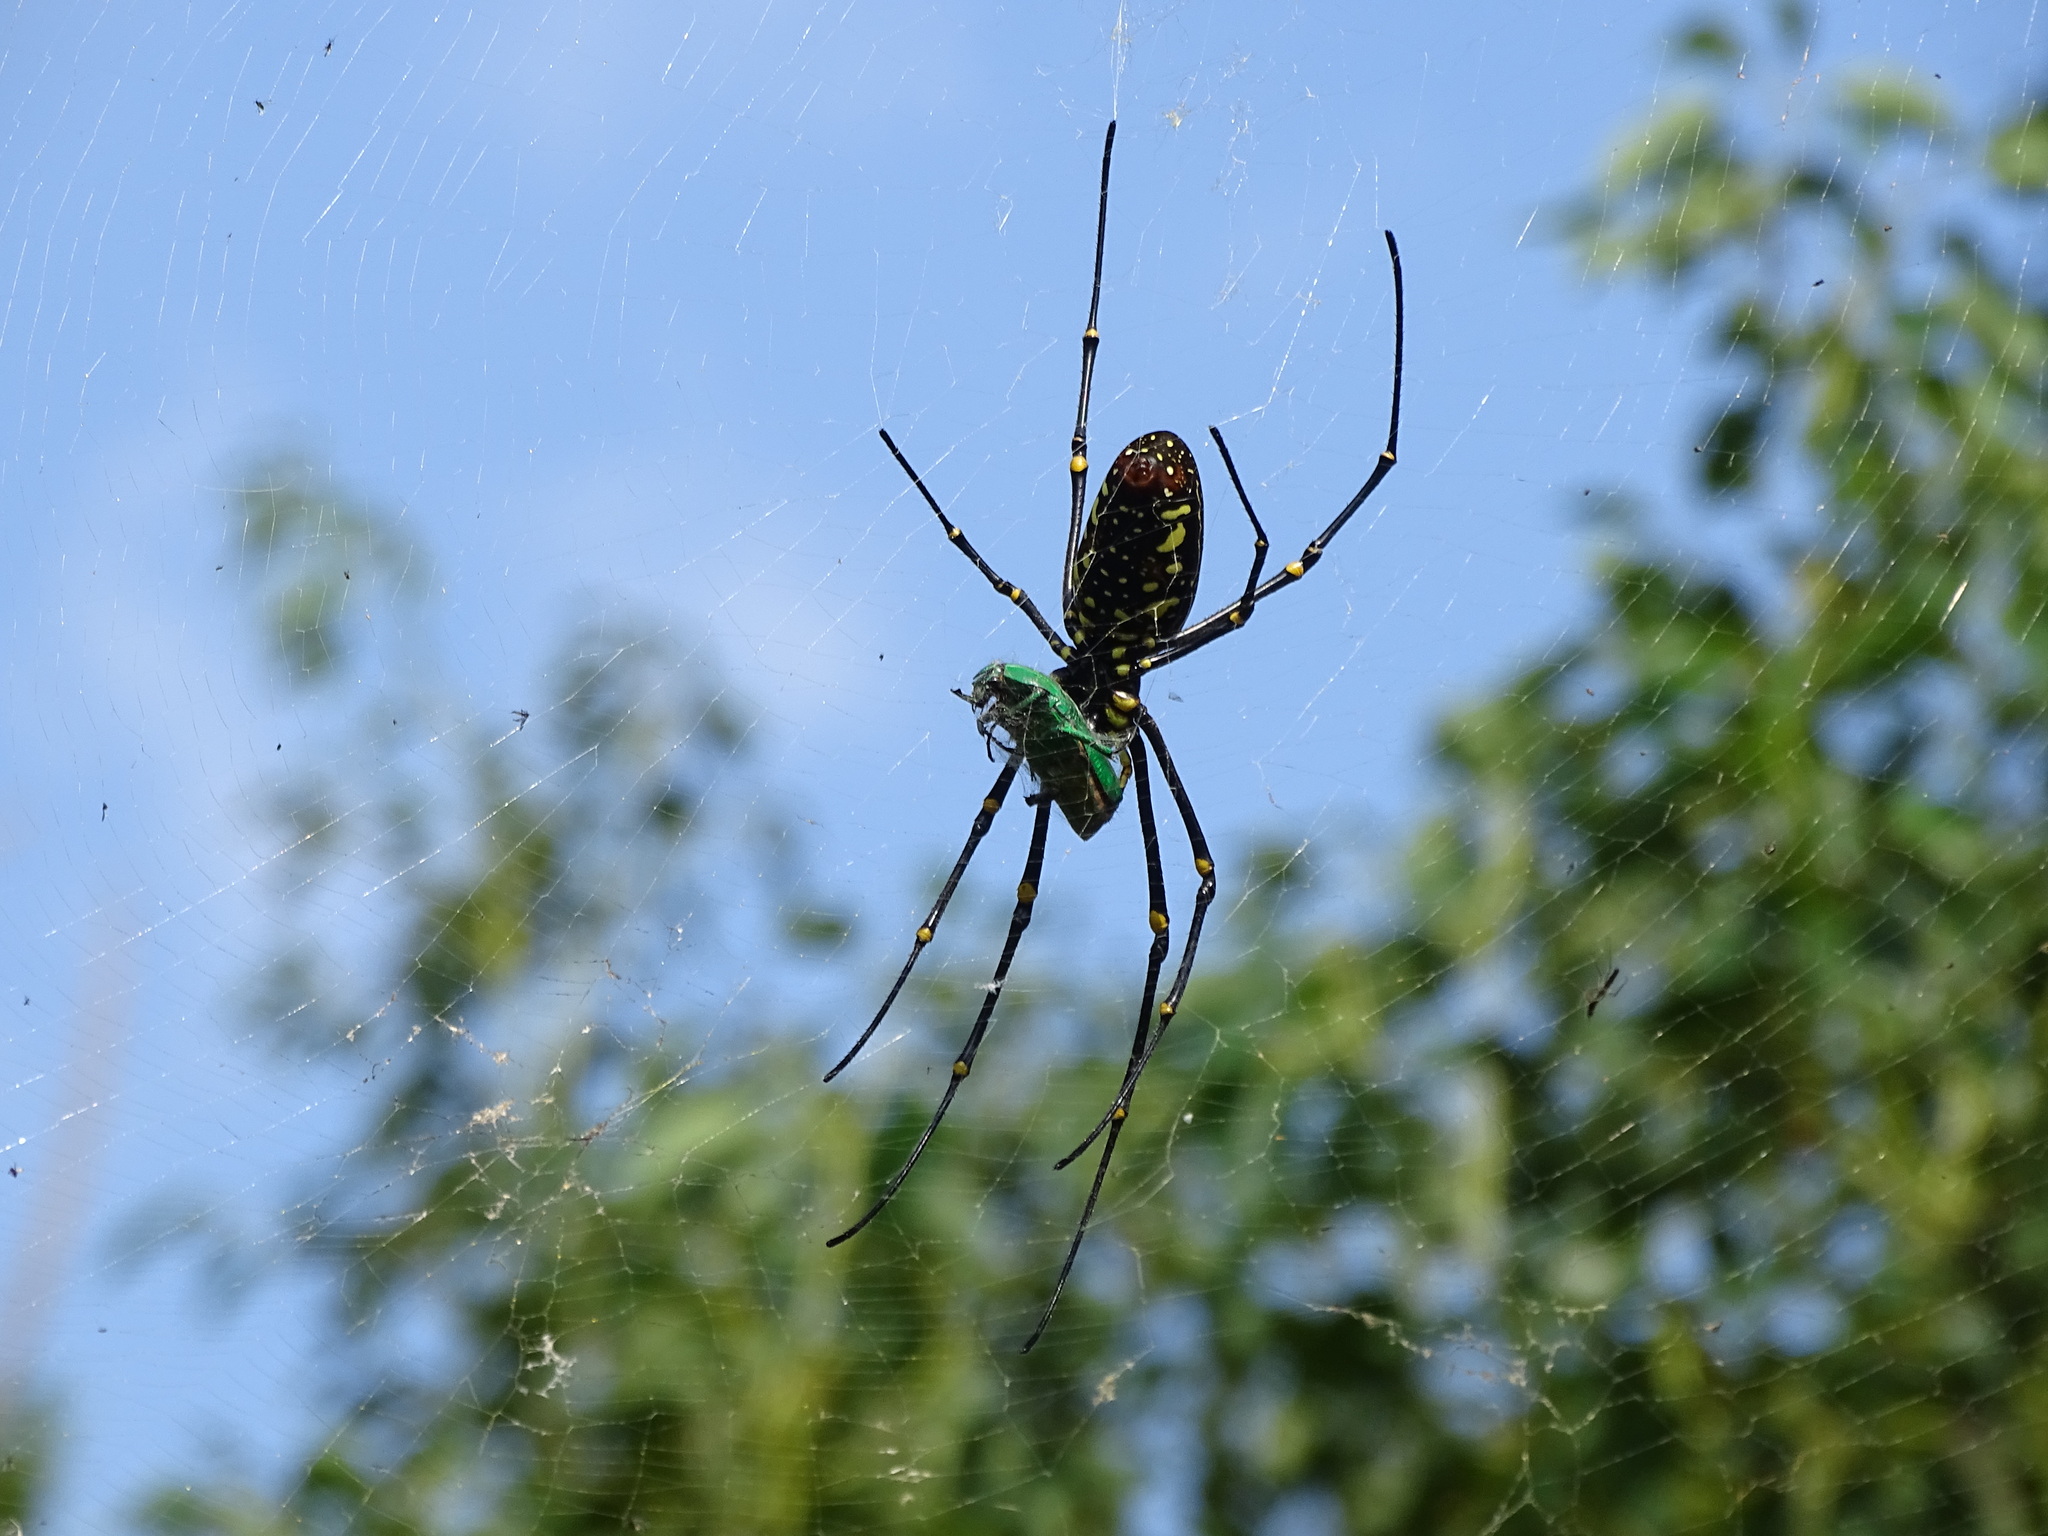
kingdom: Animalia
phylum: Arthropoda
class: Arachnida
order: Araneae
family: Araneidae
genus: Trichonephila
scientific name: Trichonephila clavata
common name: Jorō spider
